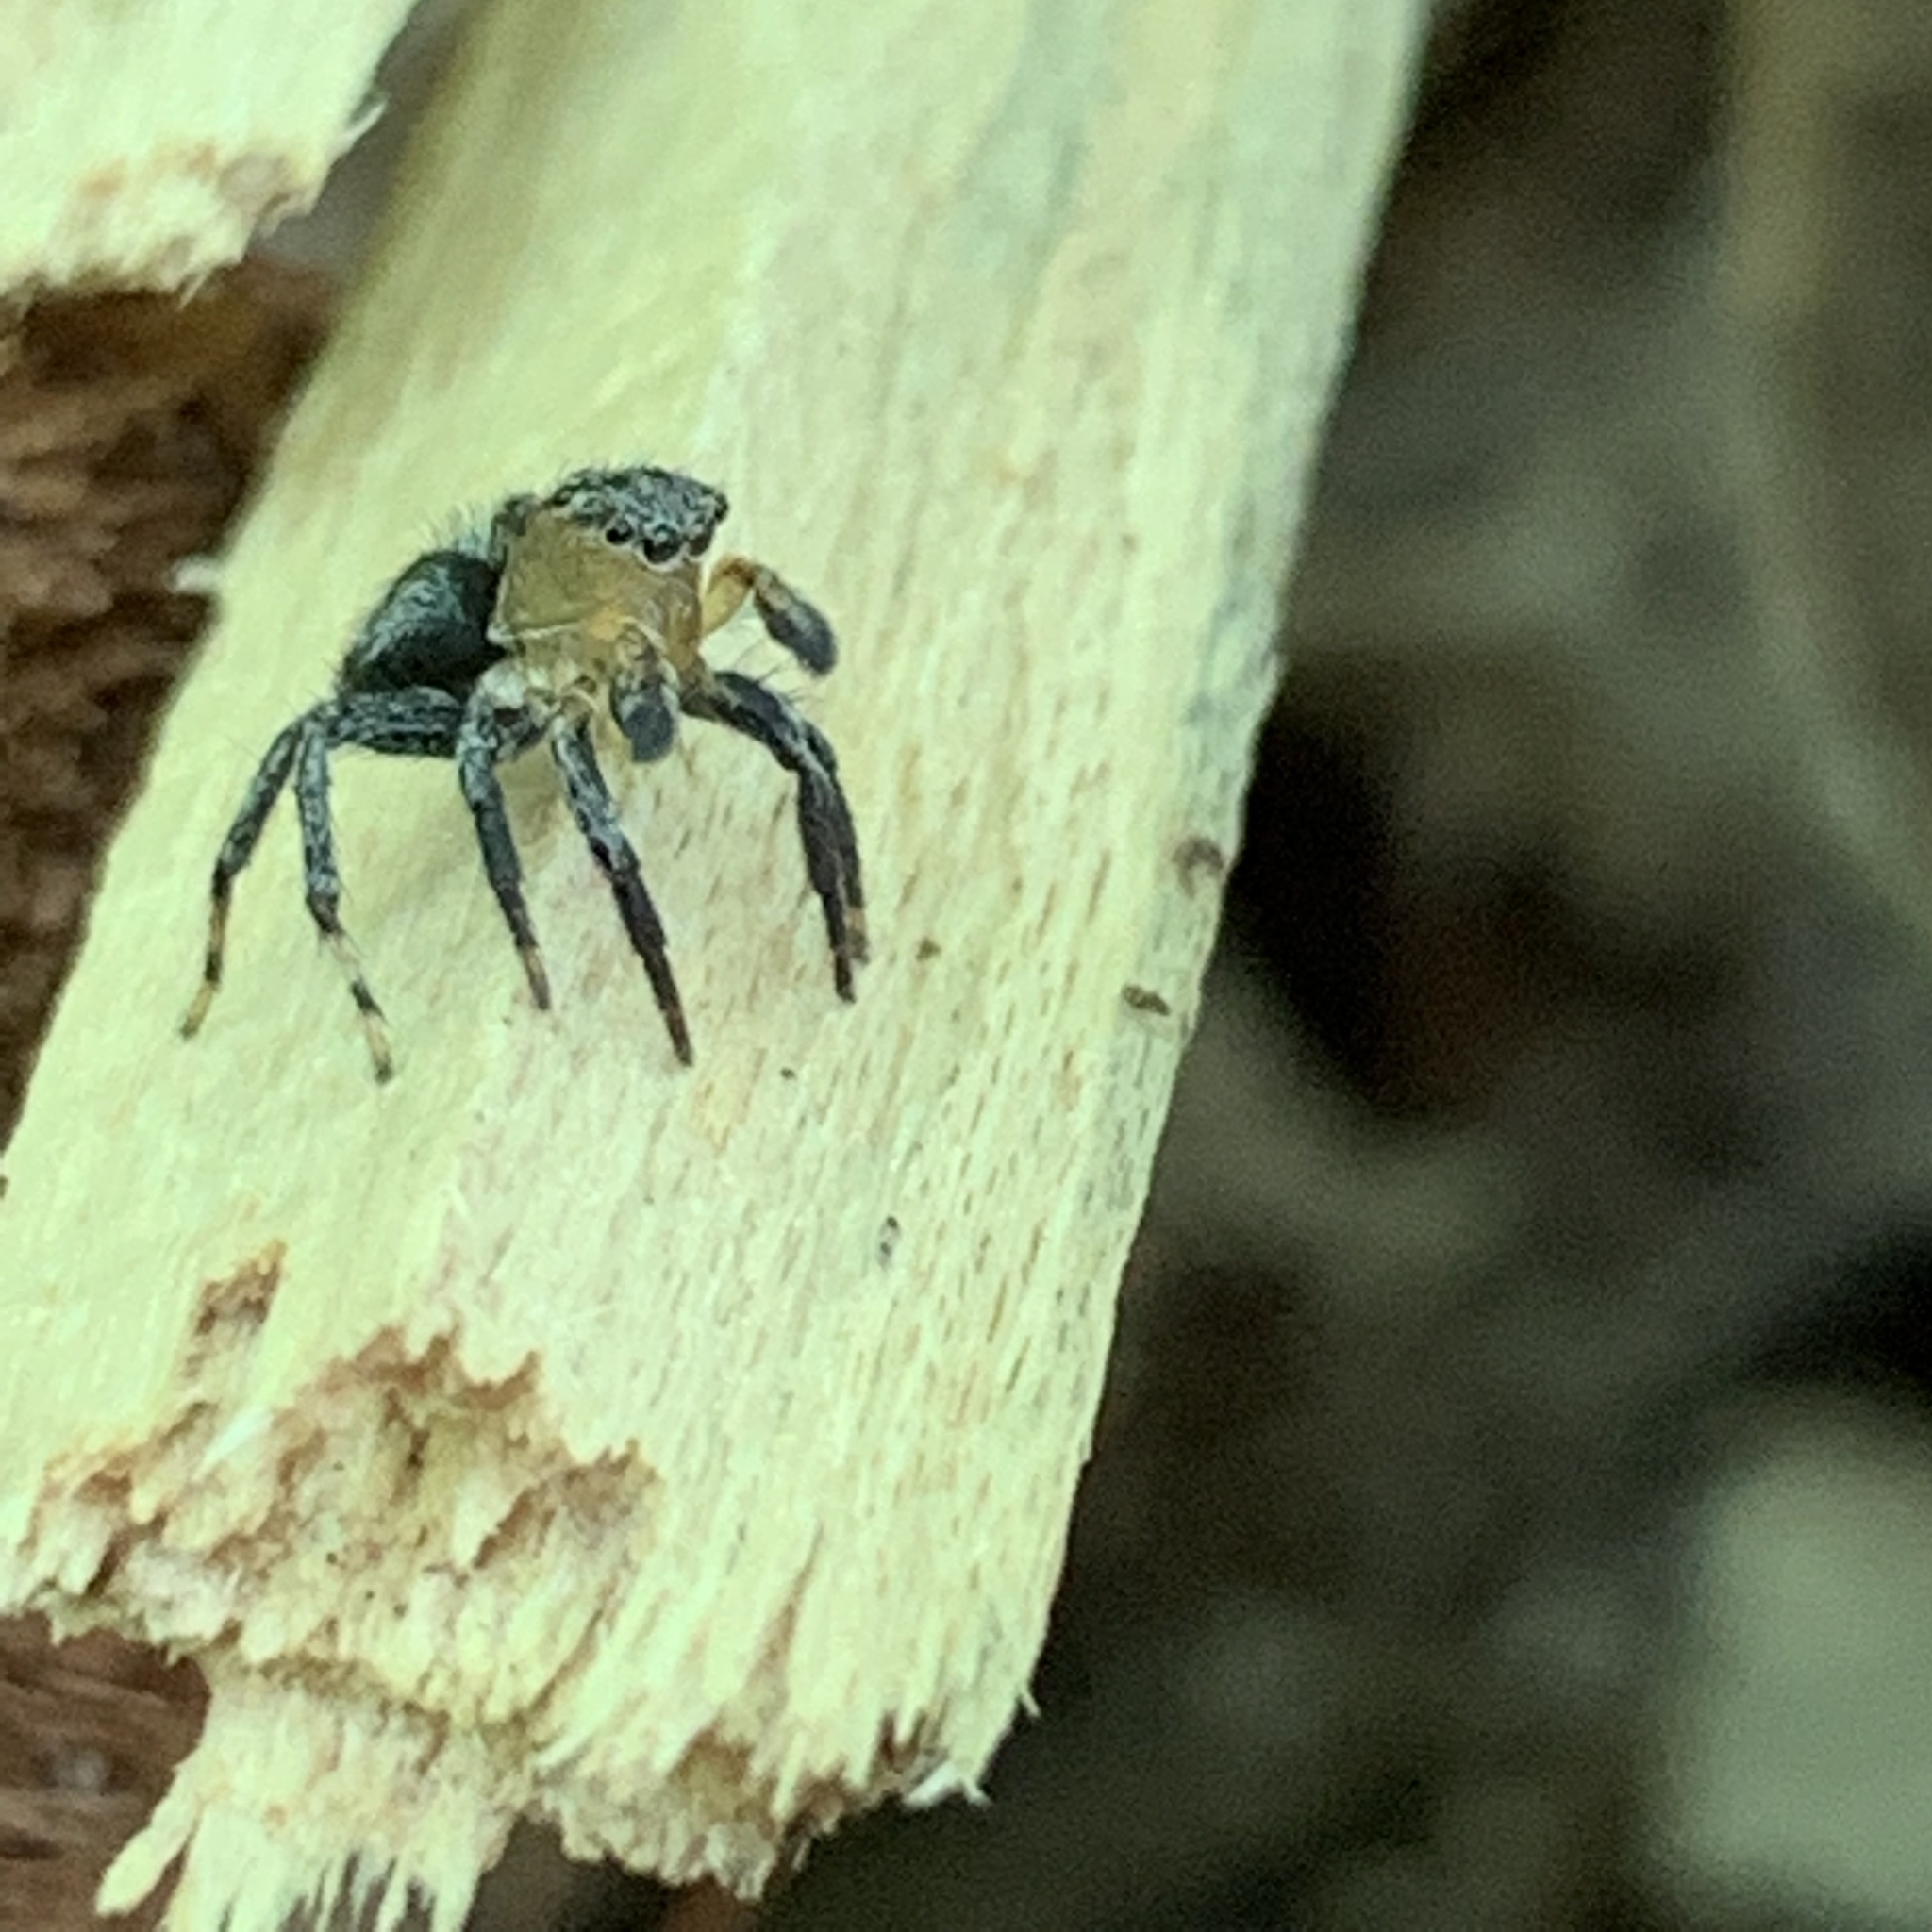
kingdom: Animalia
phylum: Arthropoda
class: Arachnida
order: Araneae
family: Salticidae
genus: Naphrys
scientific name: Naphrys pulex
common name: Flea jumping spider
